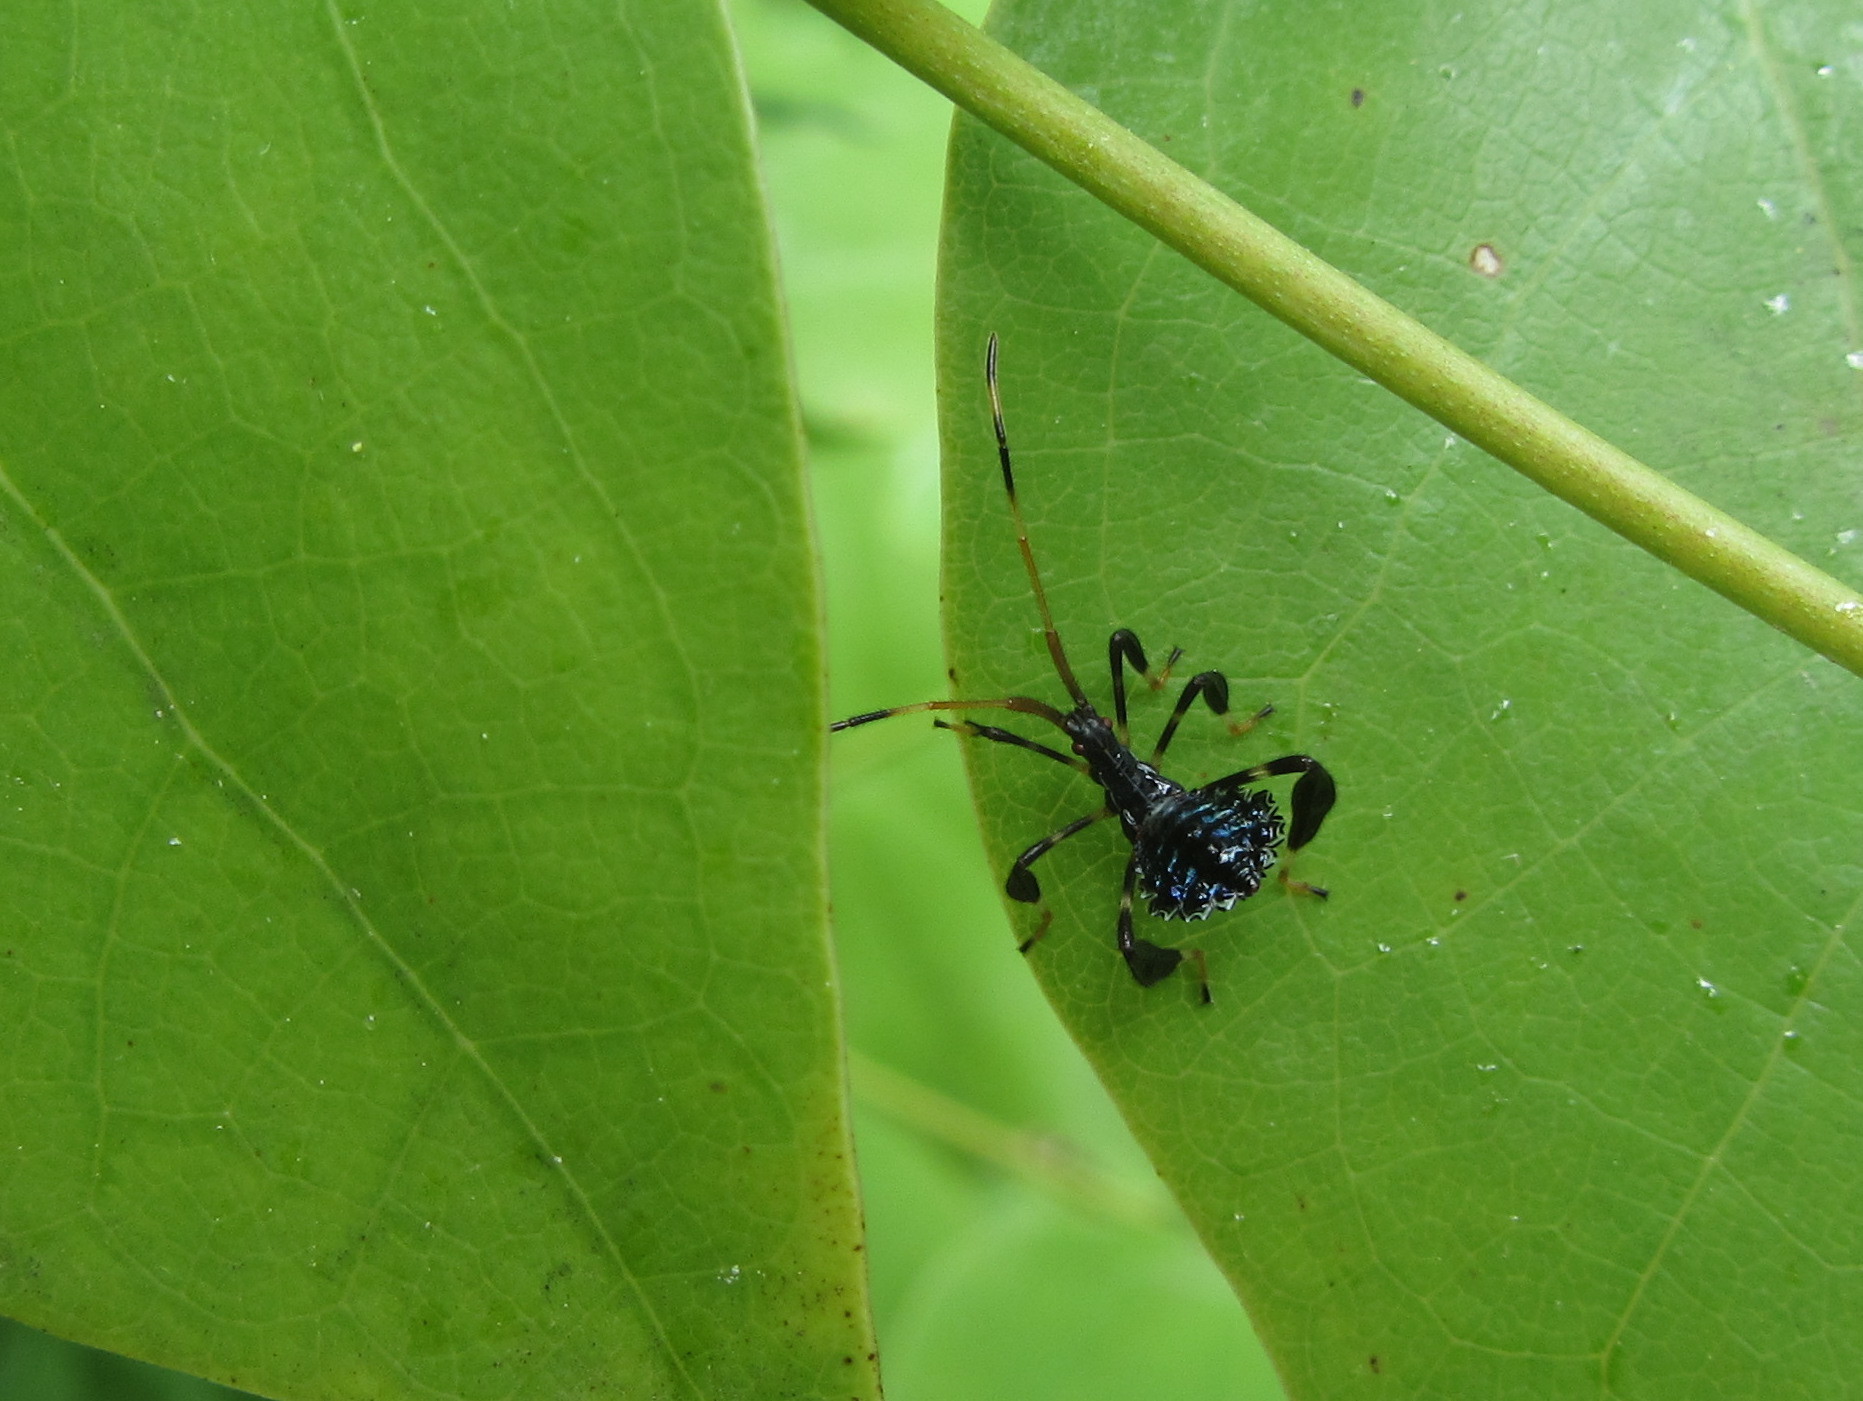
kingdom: Animalia
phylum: Arthropoda
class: Insecta
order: Hemiptera
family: Coreidae
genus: Acanthocephala
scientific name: Acanthocephala terminalis
